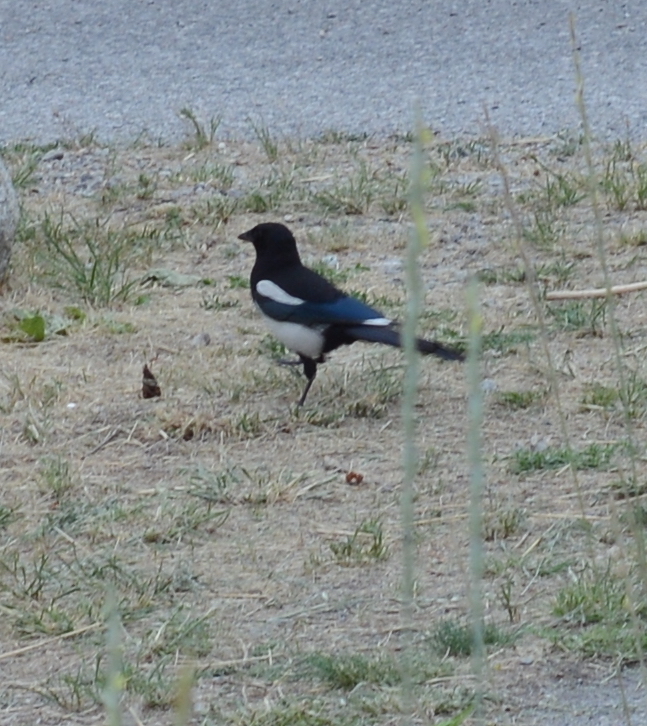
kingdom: Animalia
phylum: Chordata
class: Aves
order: Passeriformes
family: Corvidae
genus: Pica
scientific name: Pica hudsonia
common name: Black-billed magpie
